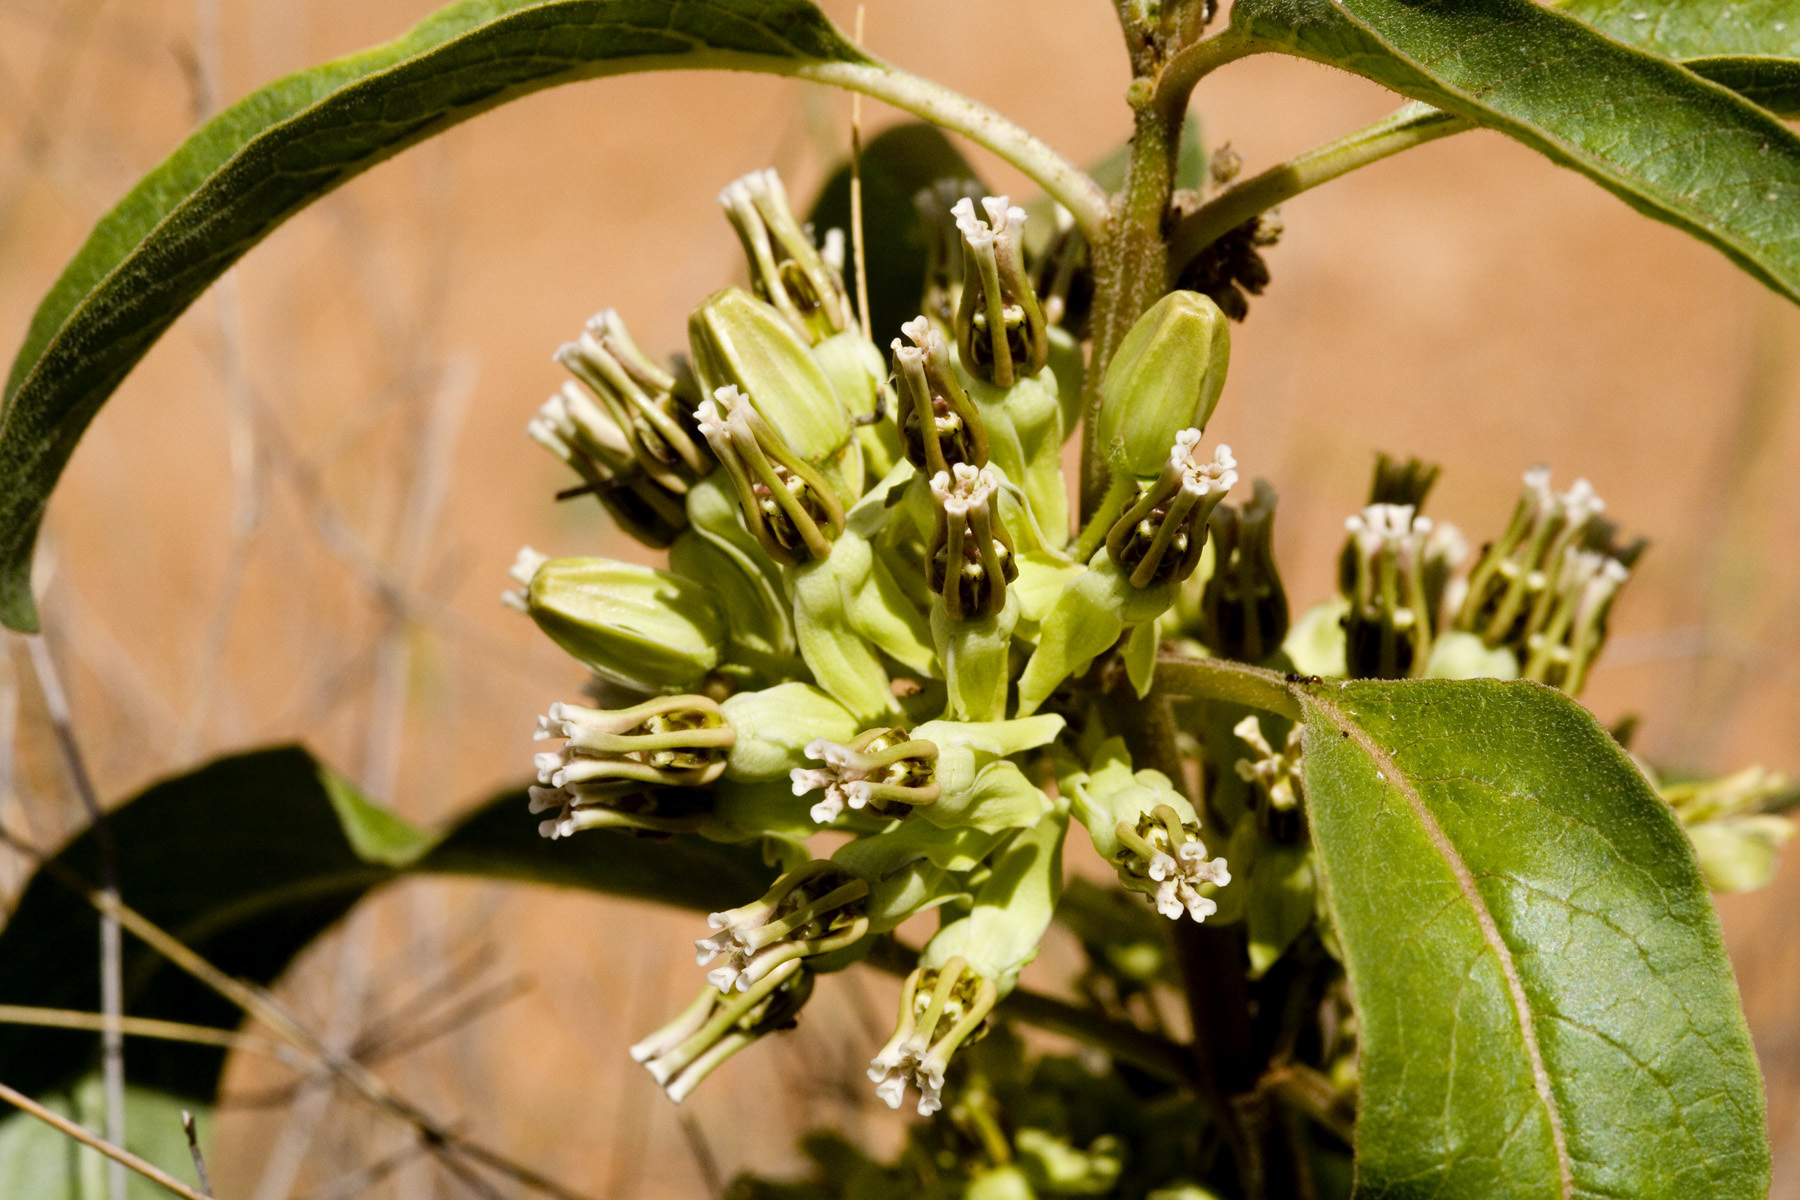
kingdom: Plantae
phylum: Tracheophyta
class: Magnoliopsida
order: Gentianales
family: Apocynaceae
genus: Asclepias
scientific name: Asclepias oenotheroides
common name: Zizotes milkweed
